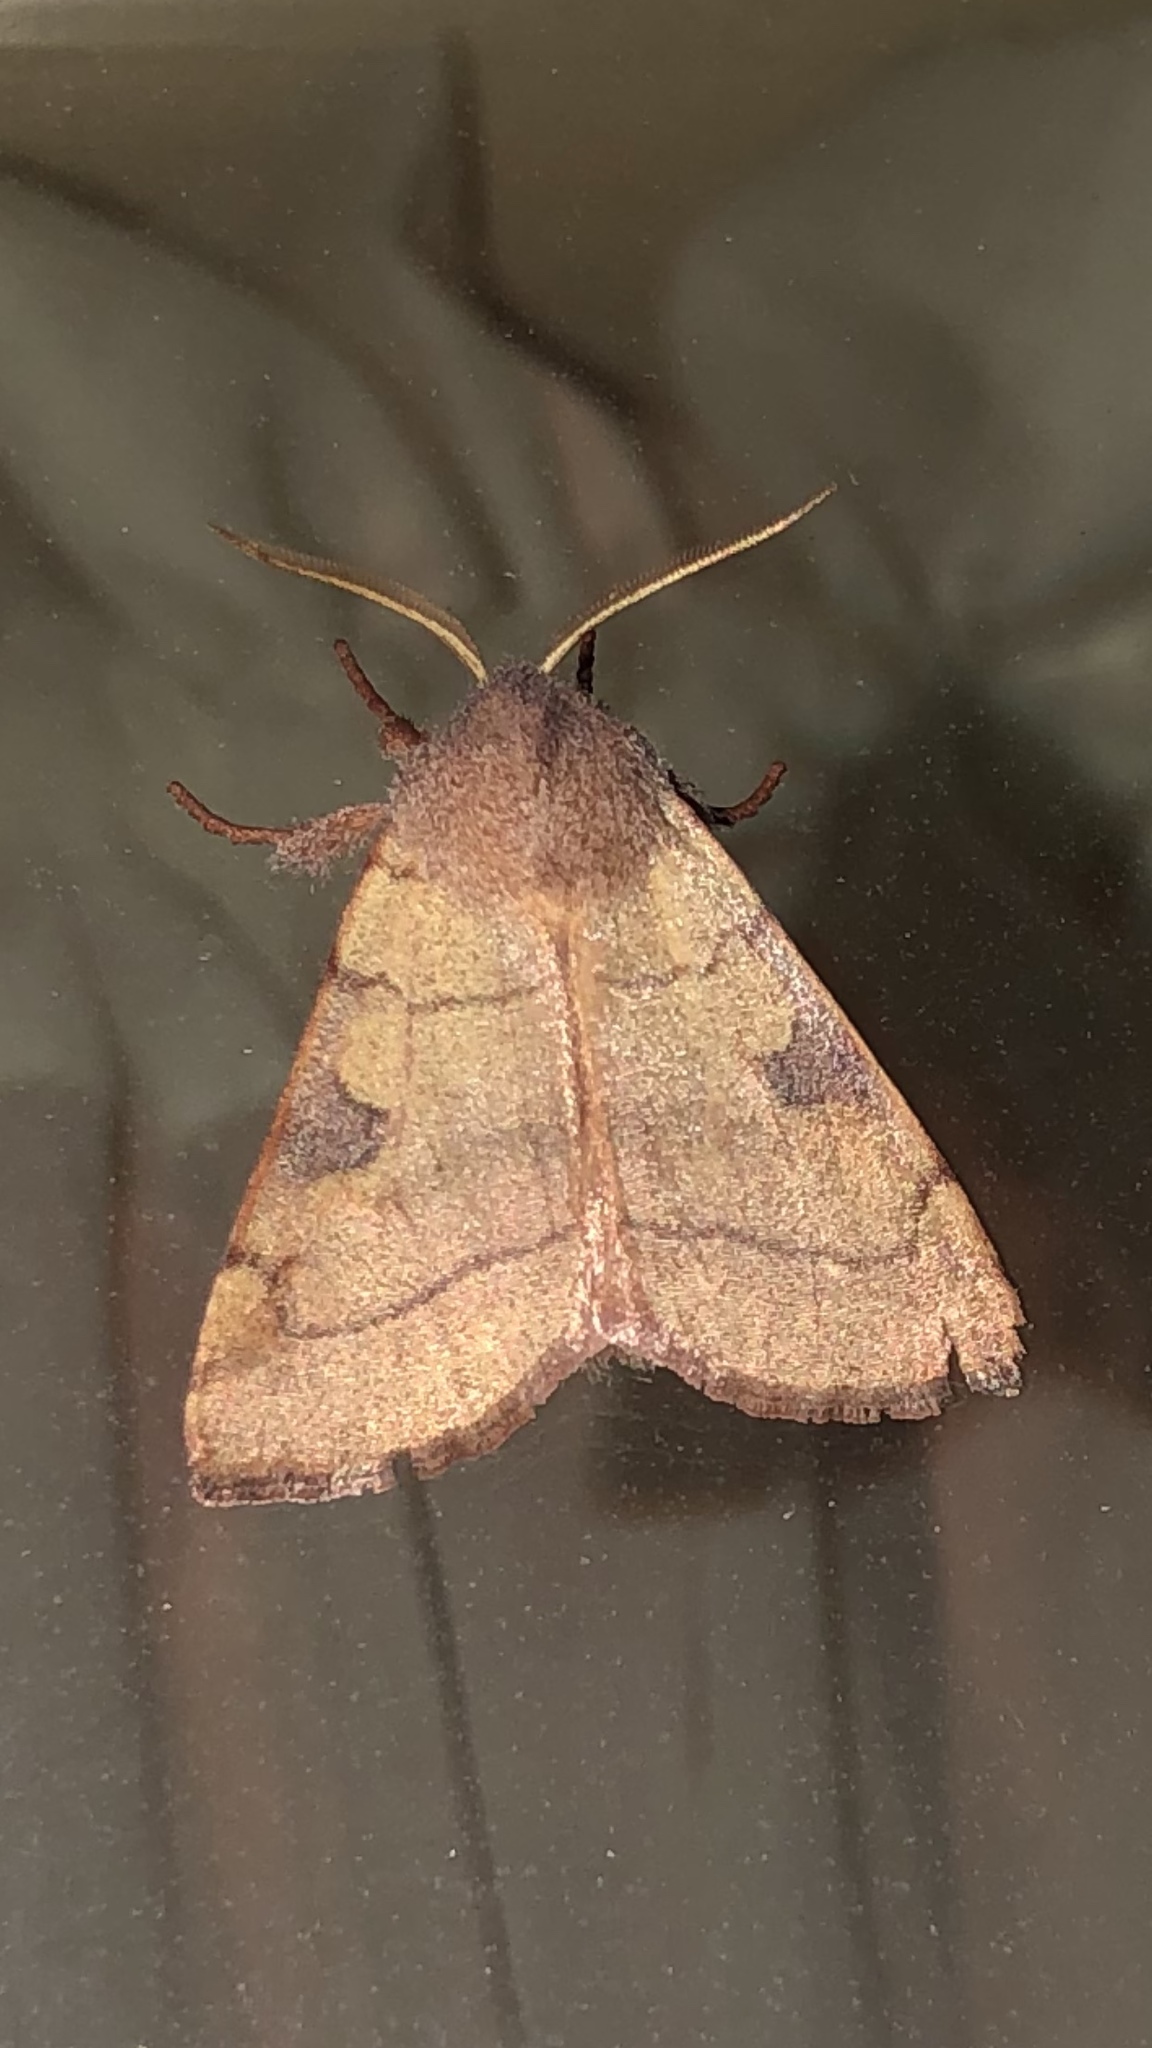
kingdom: Animalia
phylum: Arthropoda
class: Insecta
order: Lepidoptera
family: Noctuidae
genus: Choephora
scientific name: Choephora fungorum
